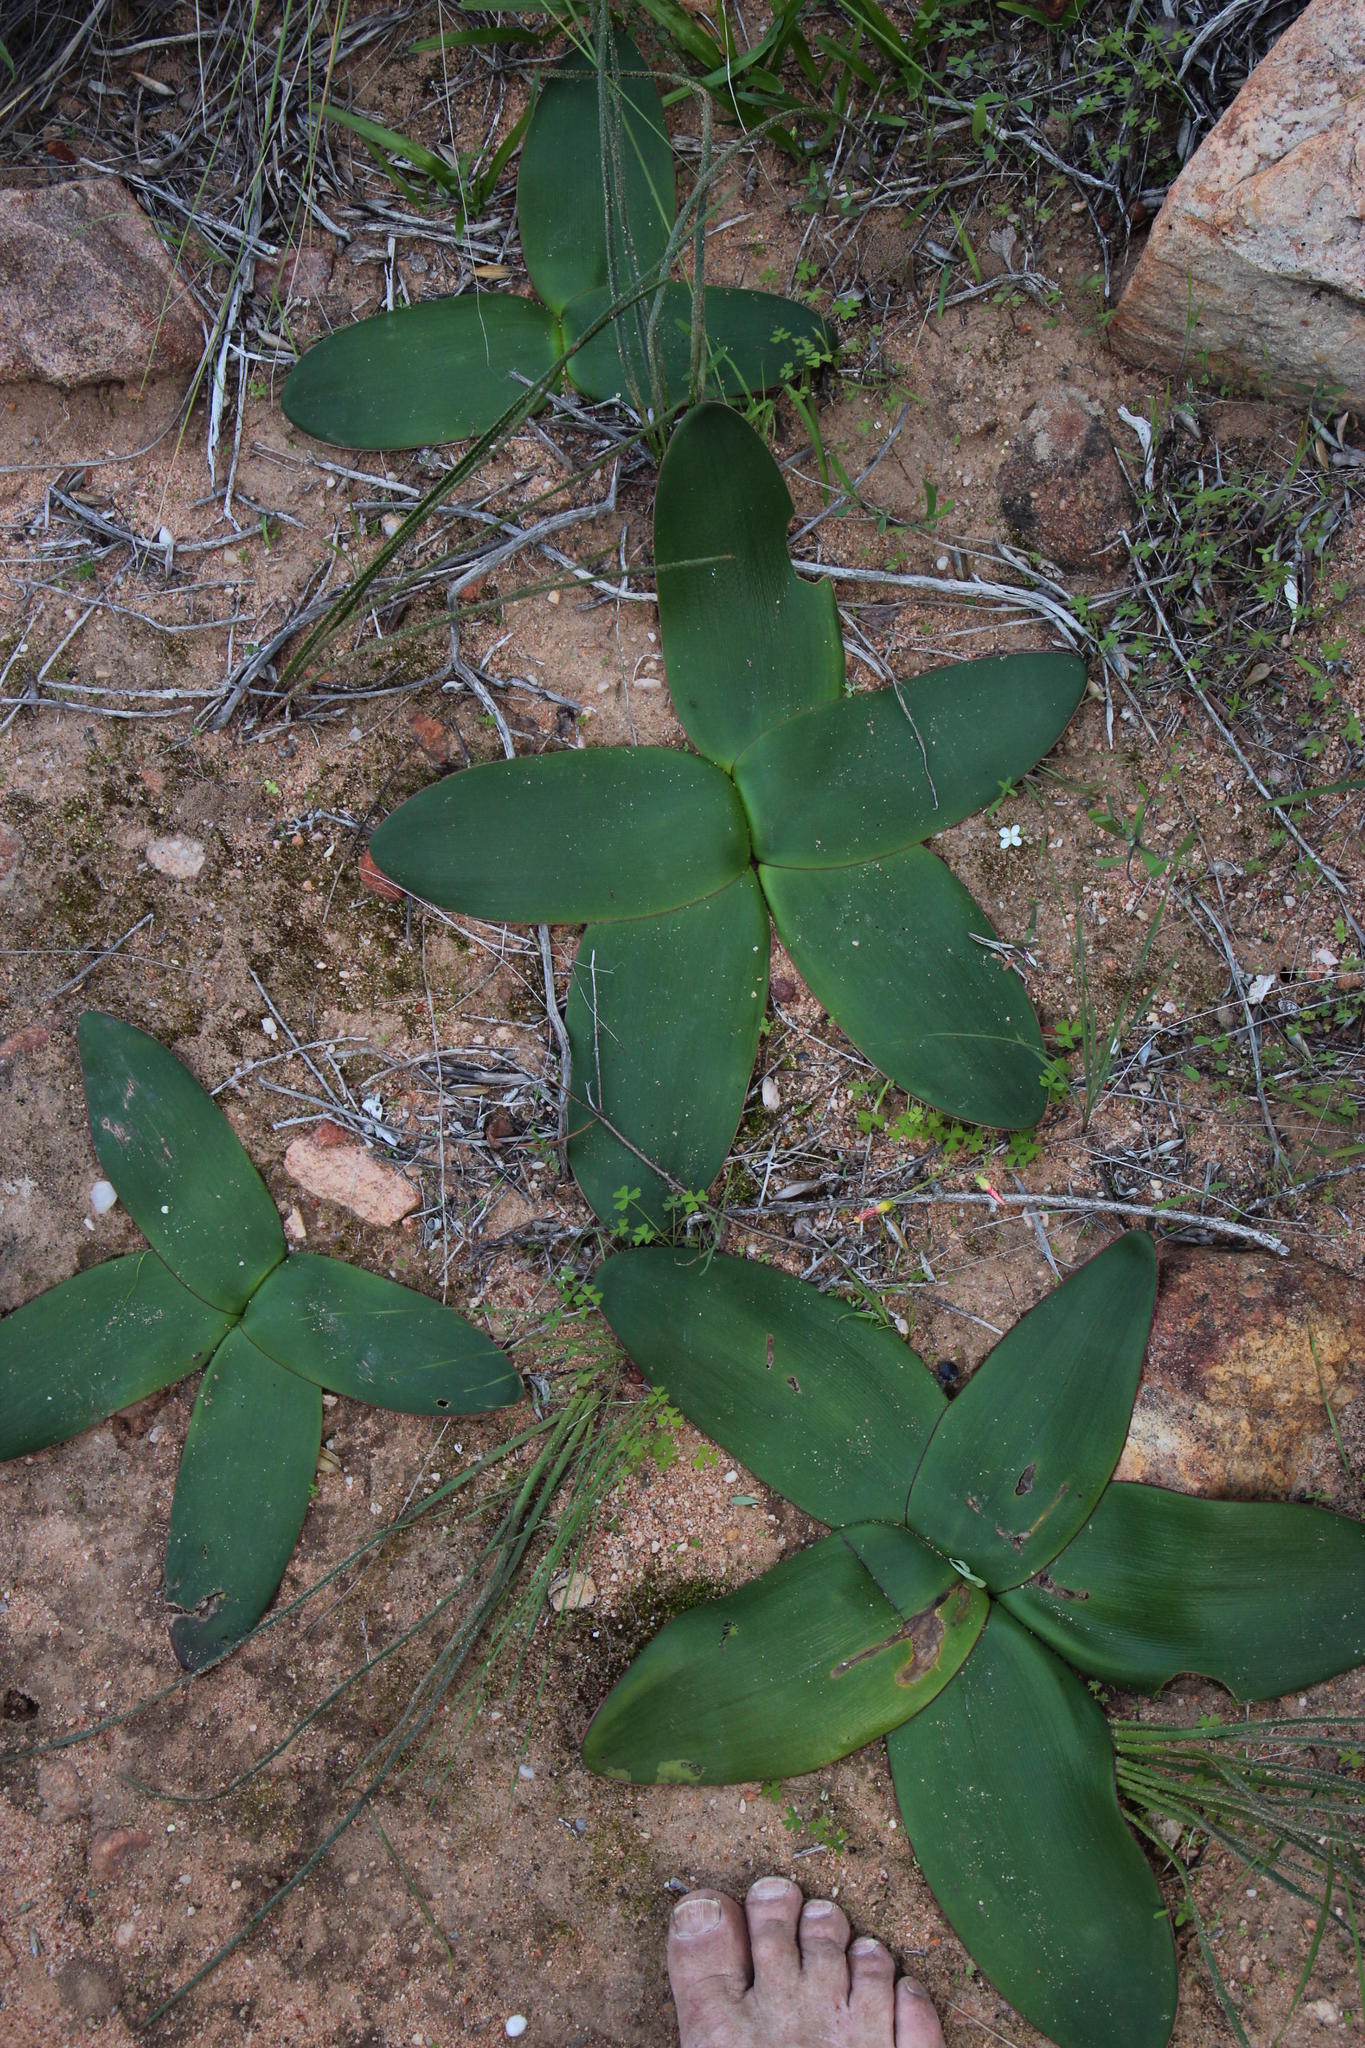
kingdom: Plantae
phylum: Tracheophyta
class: Liliopsida
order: Asparagales
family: Amaryllidaceae
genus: Brunsvigia
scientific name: Brunsvigia bosmaniae
